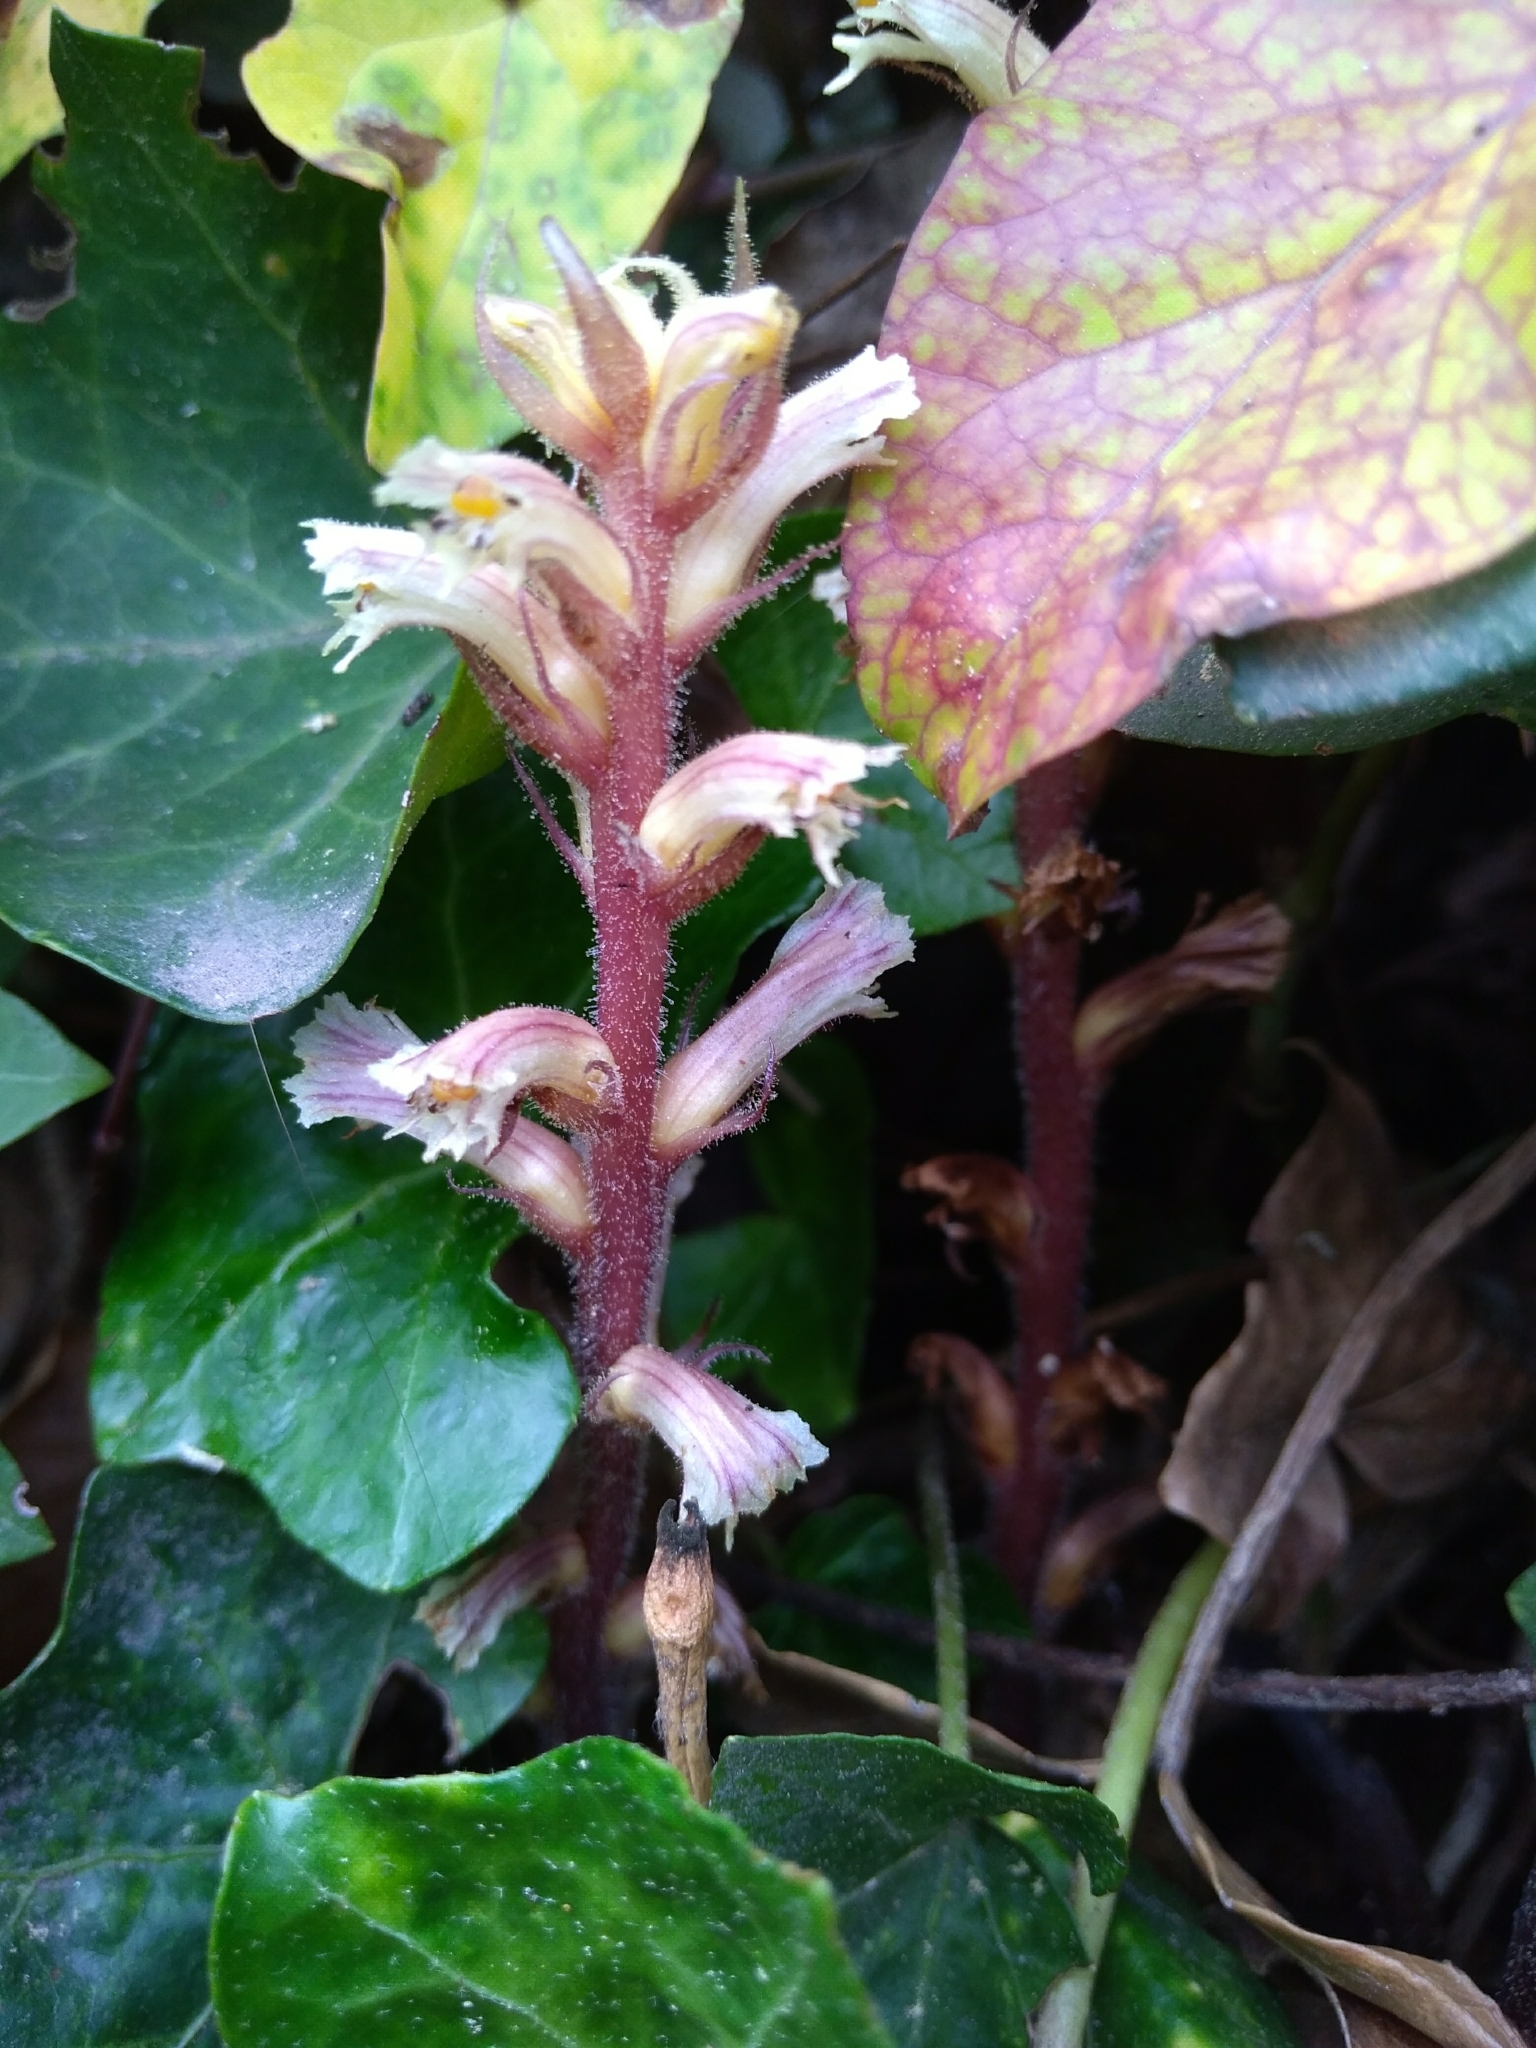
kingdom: Plantae
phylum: Tracheophyta
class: Magnoliopsida
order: Lamiales
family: Orobanchaceae
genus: Orobanche
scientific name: Orobanche hederae
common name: Ivy broomrape
